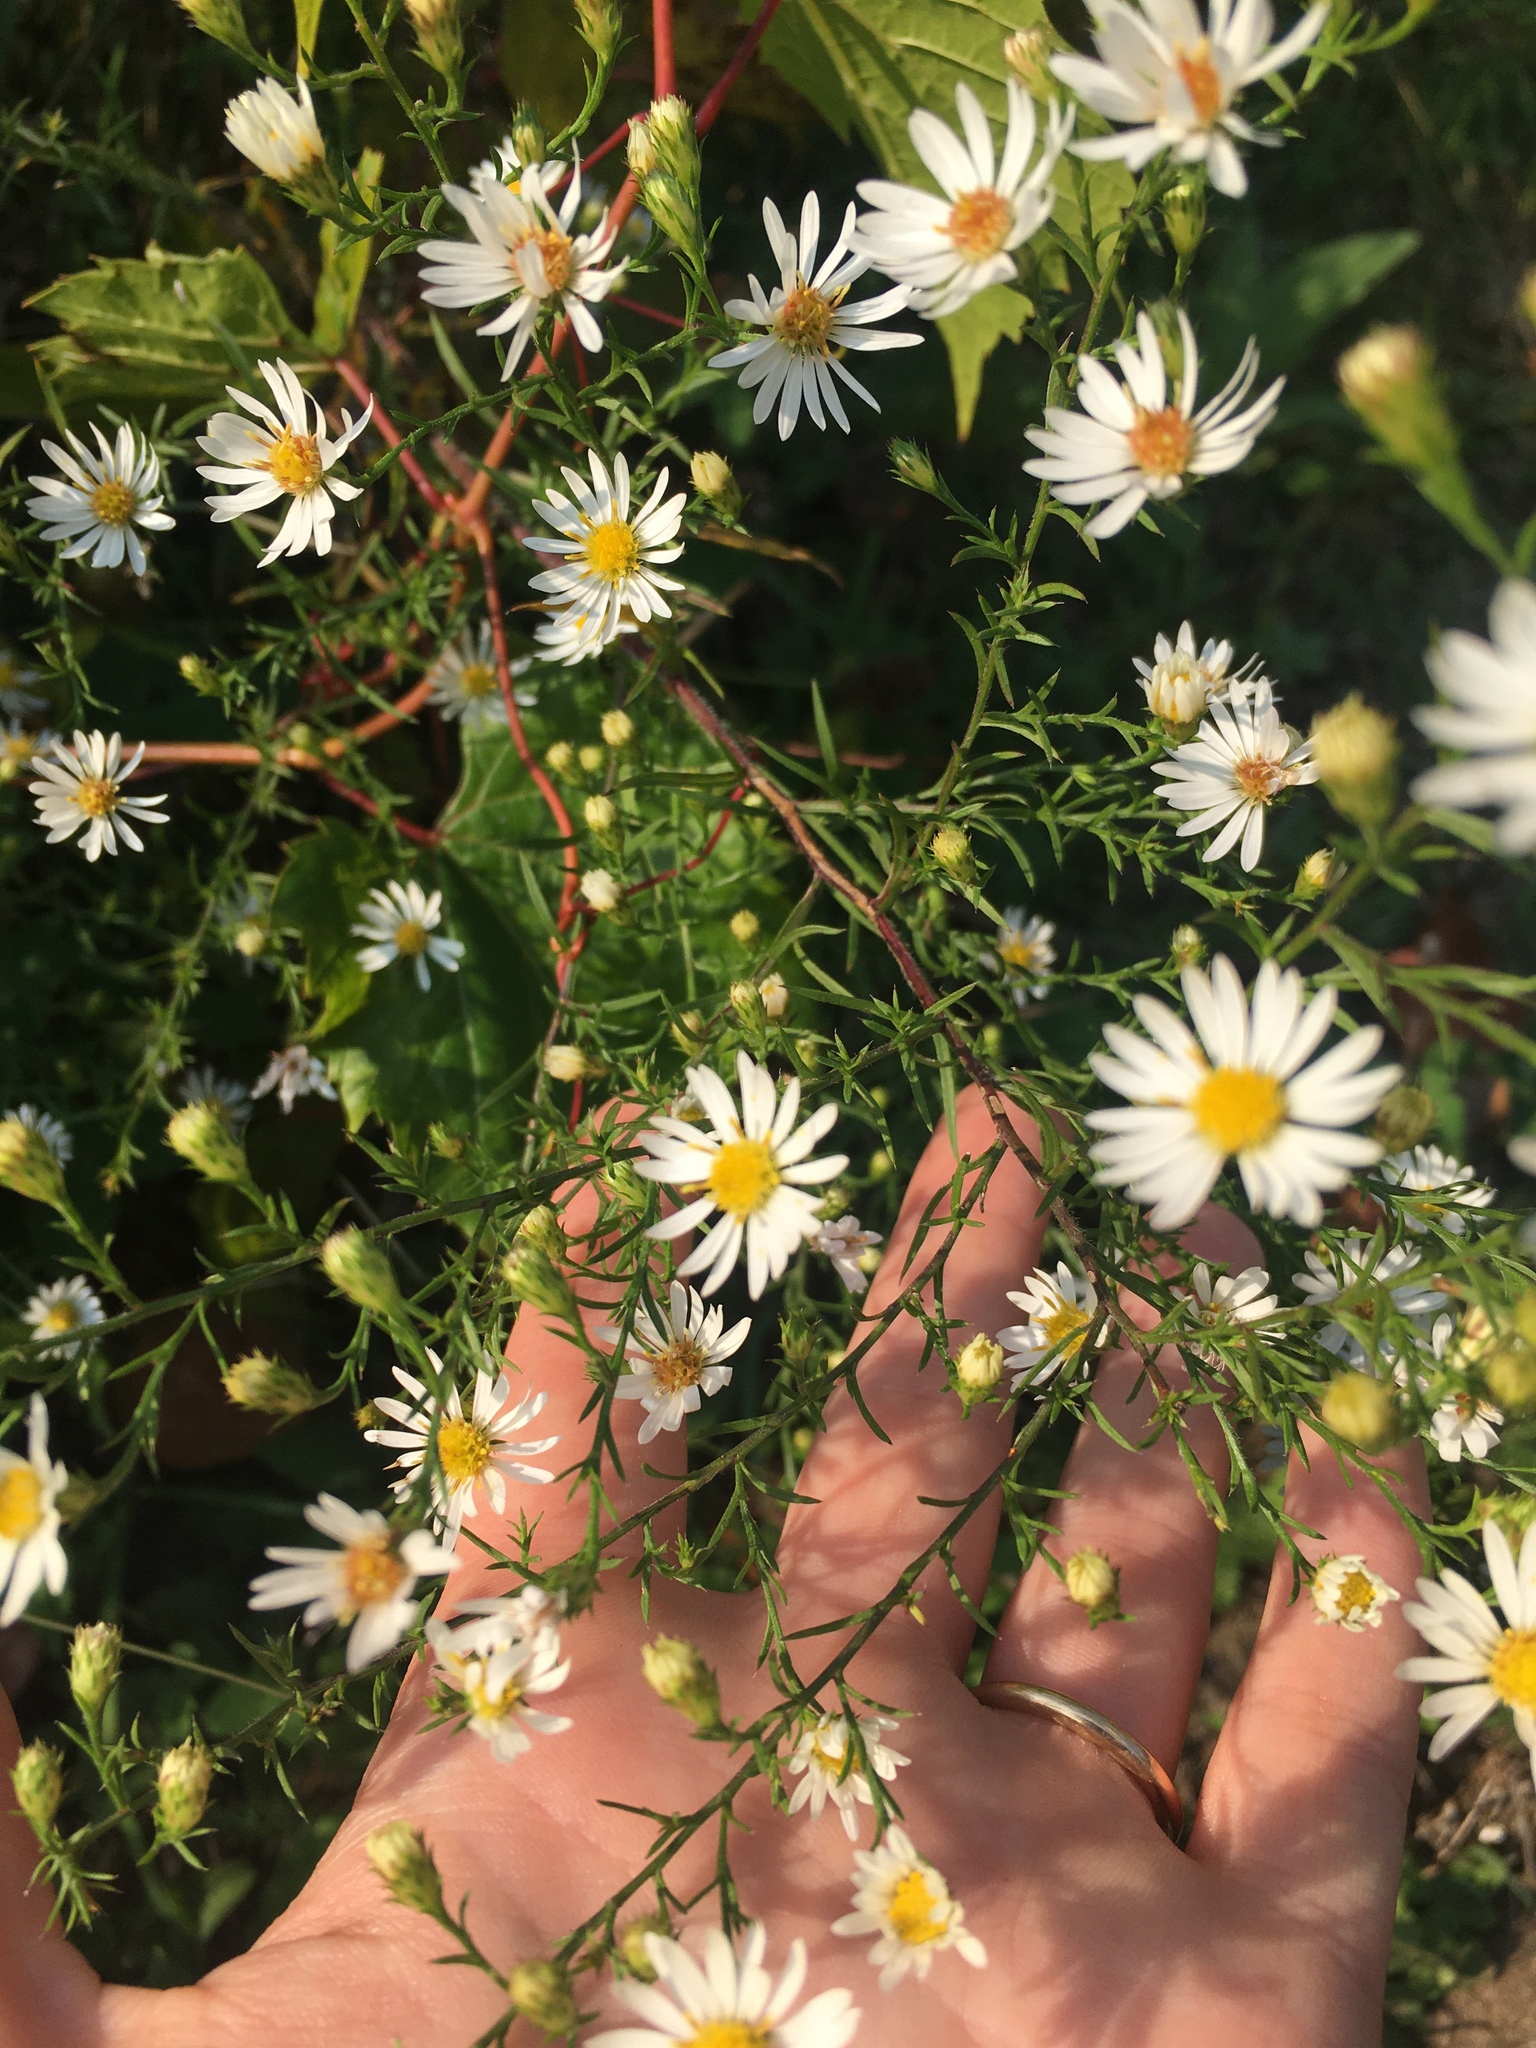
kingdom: Plantae
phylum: Tracheophyta
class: Magnoliopsida
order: Asterales
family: Asteraceae
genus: Symphyotrichum
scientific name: Symphyotrichum pilosum
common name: Awl aster
